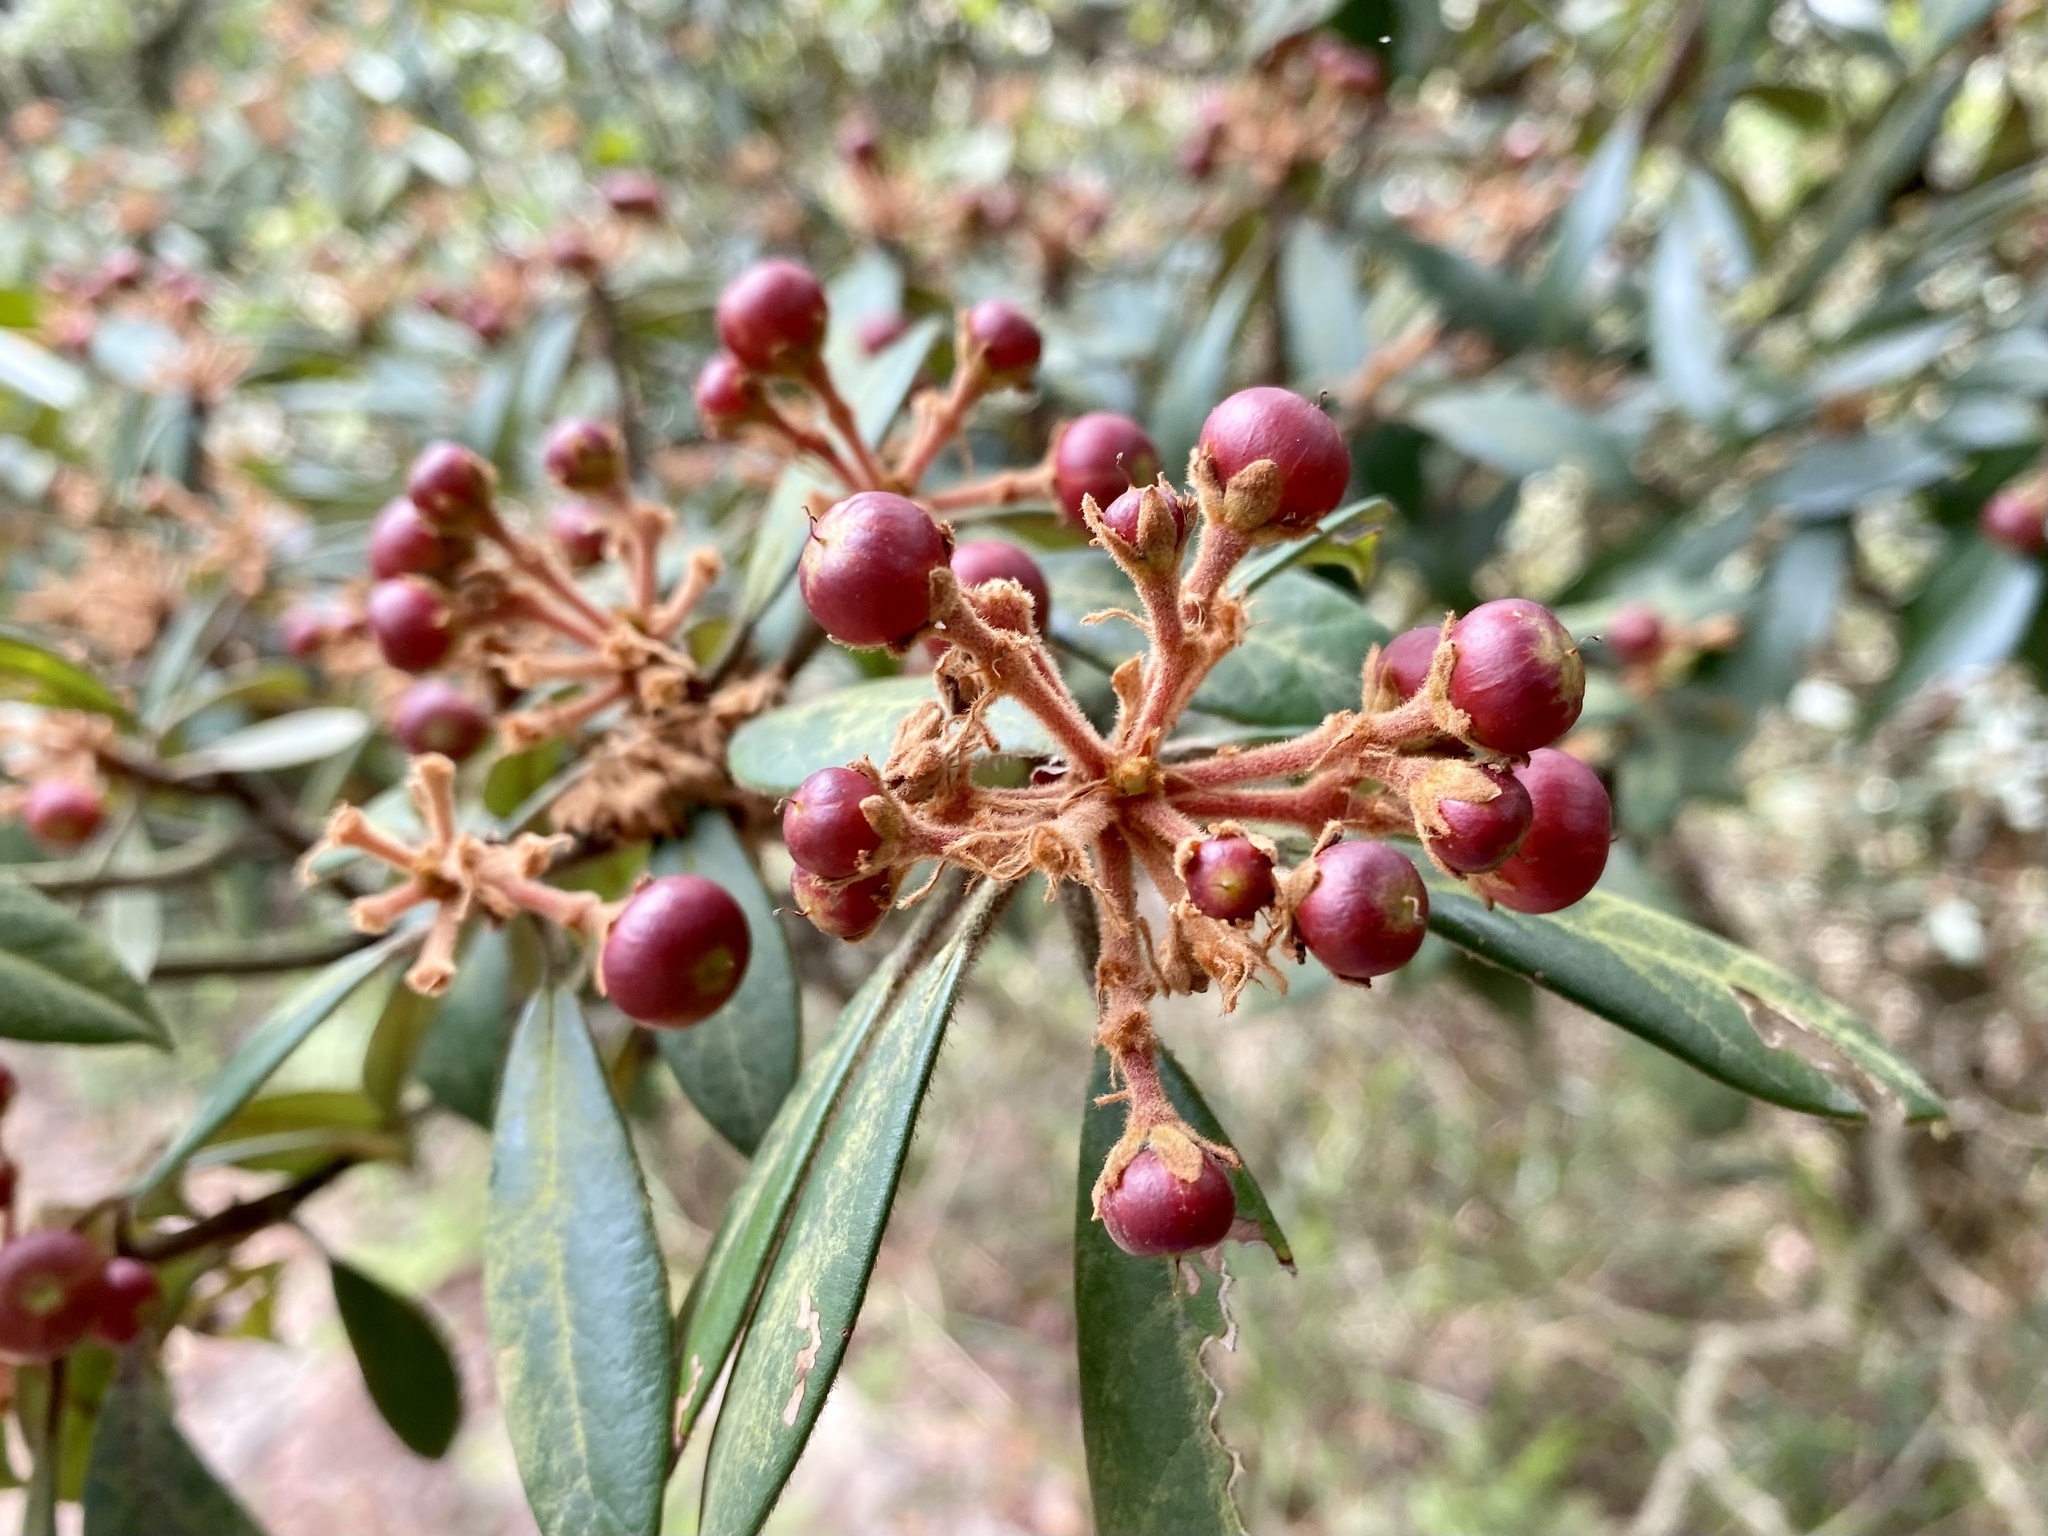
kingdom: Plantae
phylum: Tracheophyta
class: Magnoliopsida
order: Laurales
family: Lauraceae
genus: Machilus
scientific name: Machilus velutina
